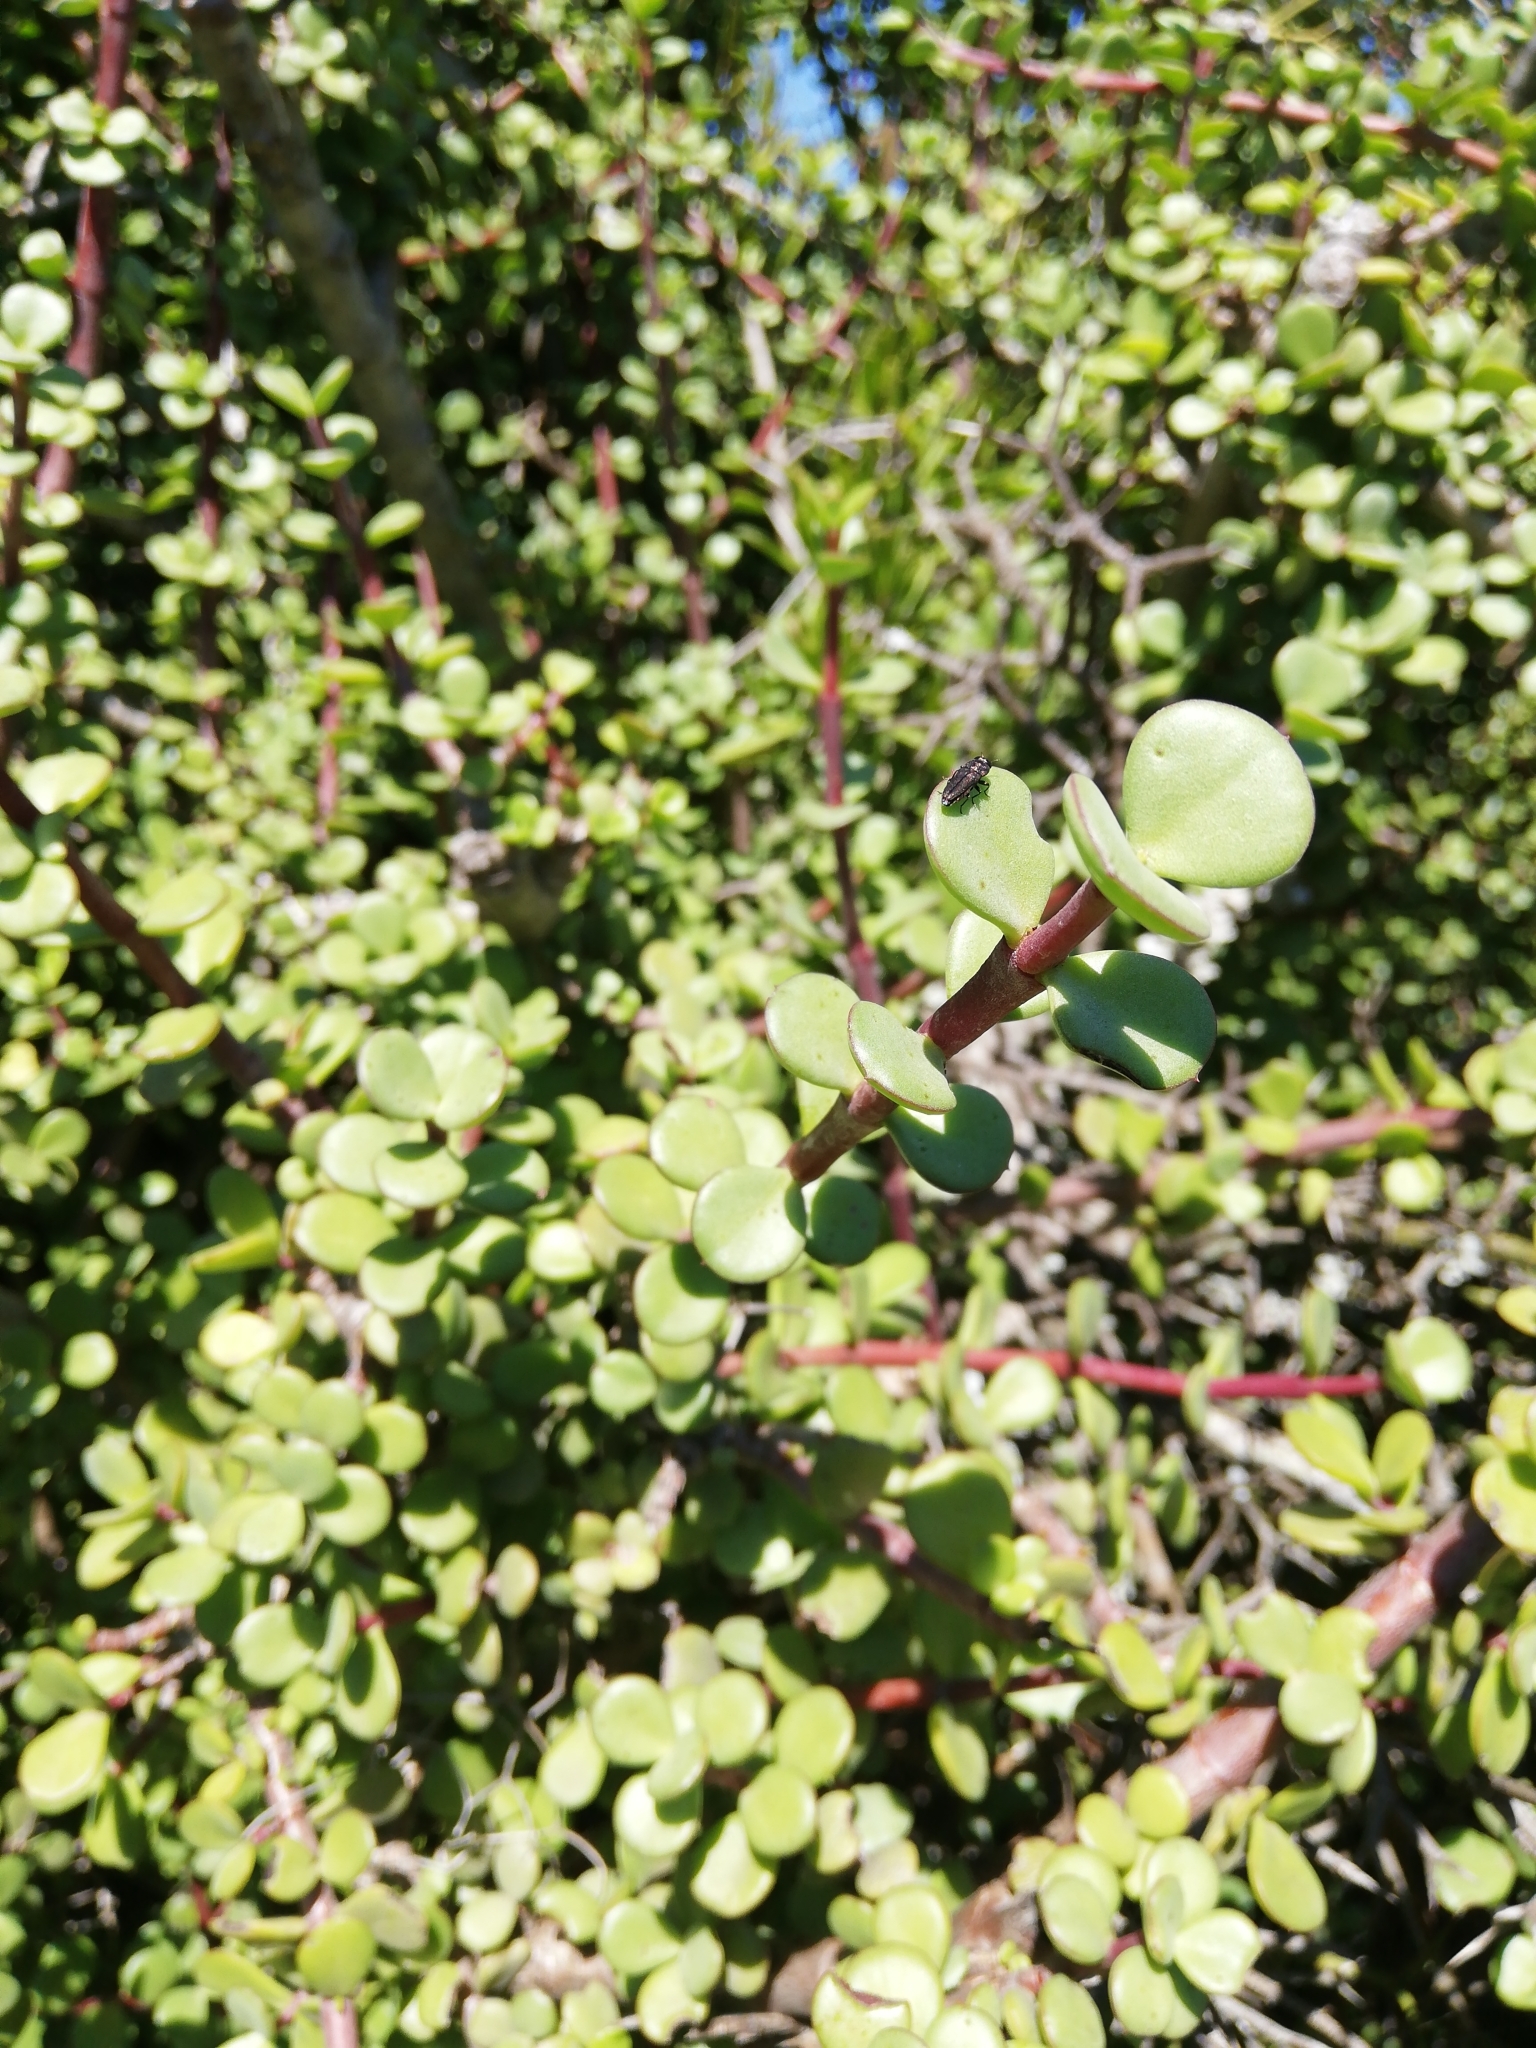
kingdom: Plantae
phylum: Tracheophyta
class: Magnoliopsida
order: Caryophyllales
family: Didiereaceae
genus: Portulacaria
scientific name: Portulacaria afra
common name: Elephant-bush
